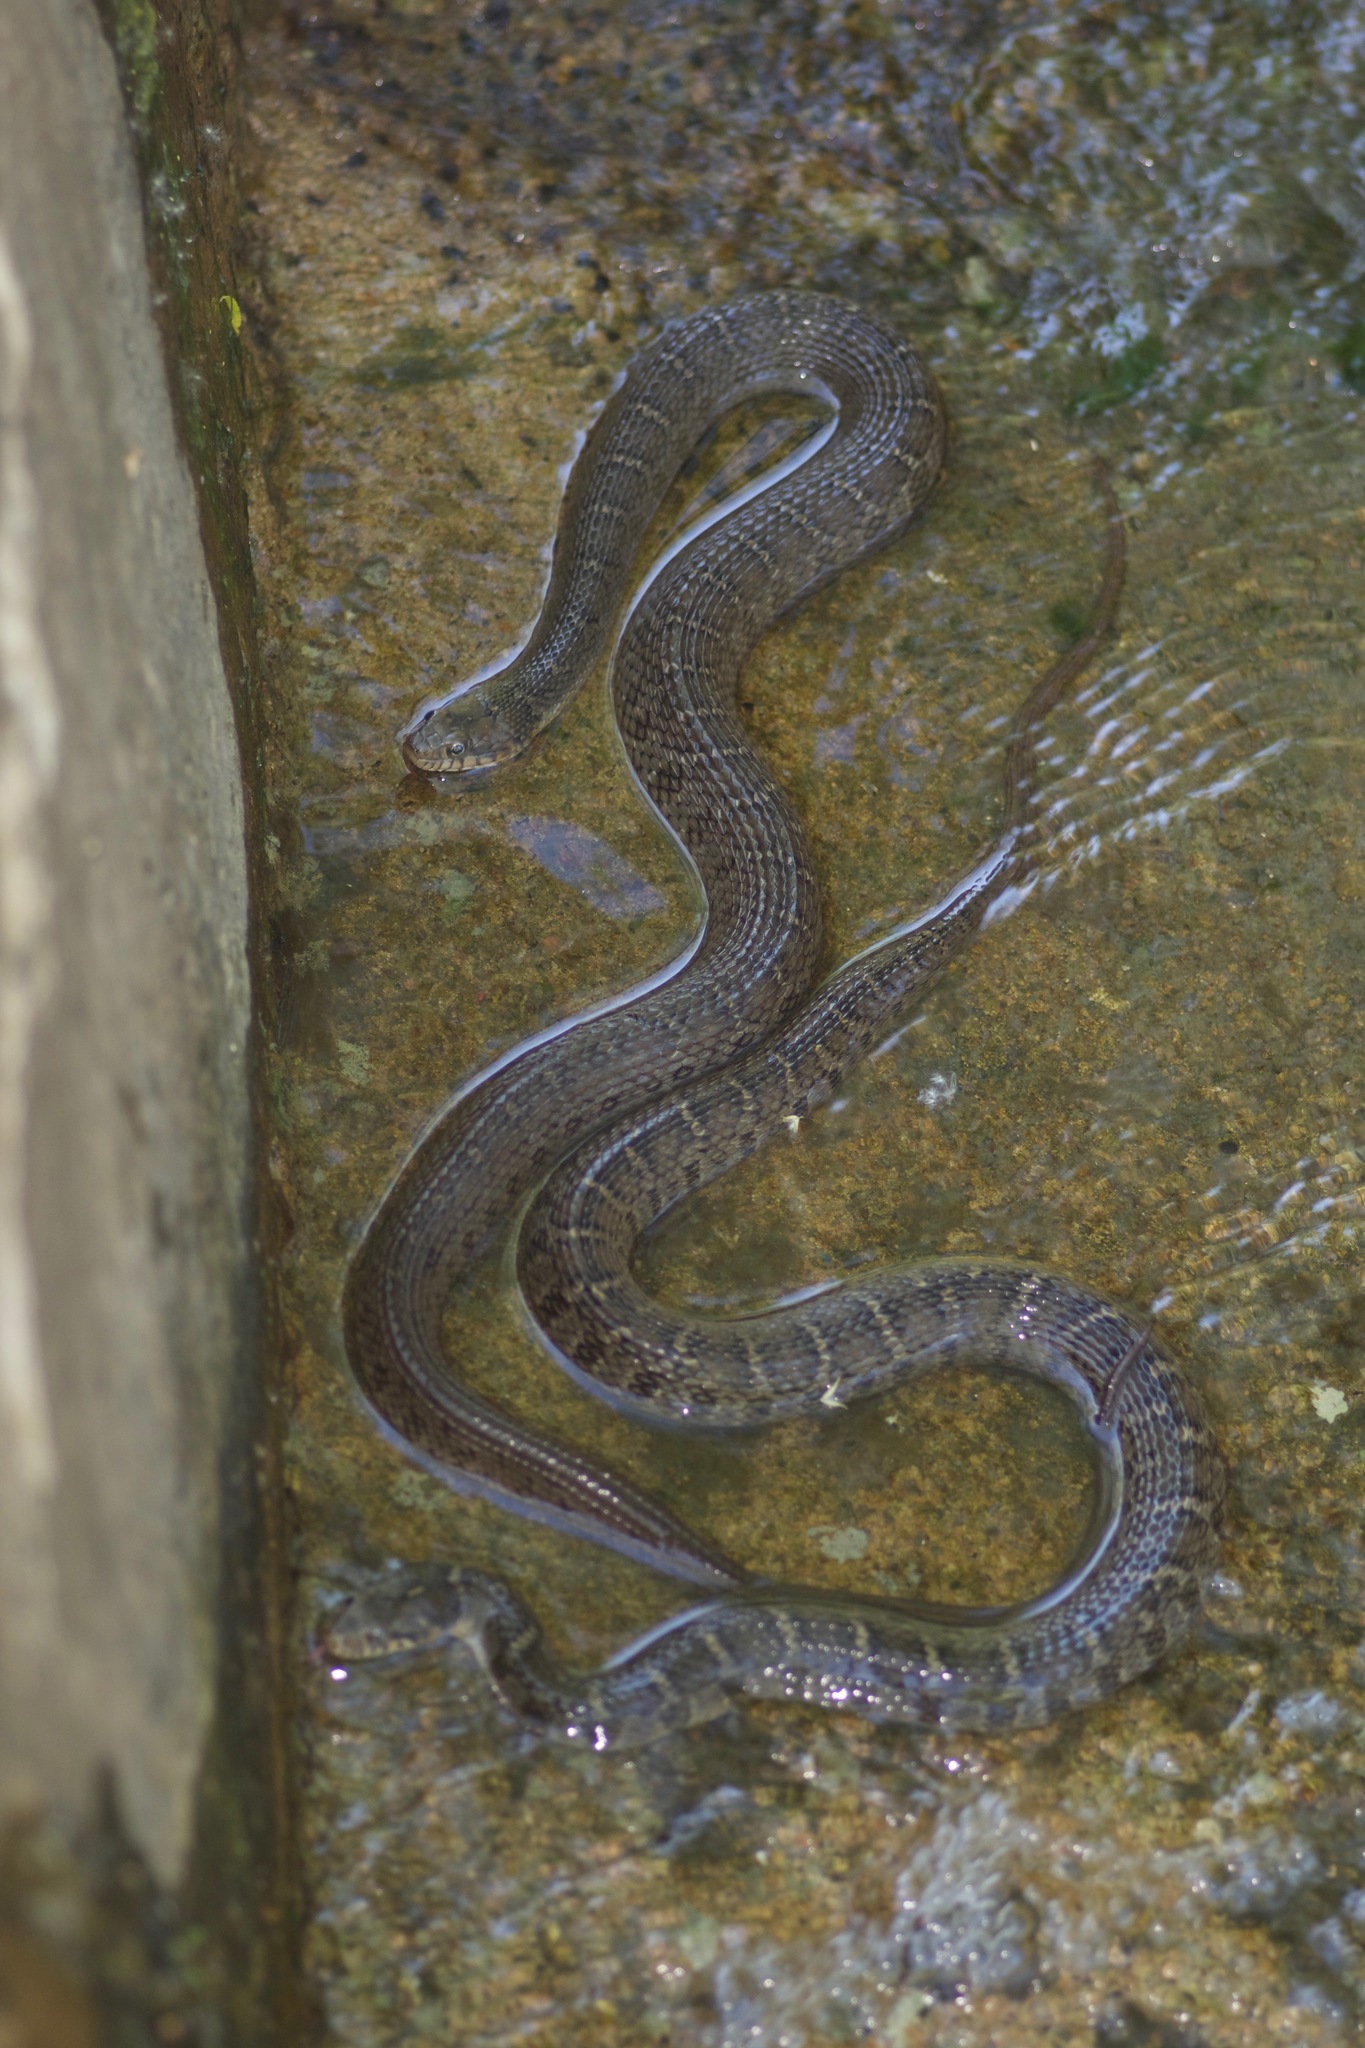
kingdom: Animalia
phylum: Chordata
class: Squamata
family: Colubridae
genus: Nerodia
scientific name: Nerodia erythrogaster
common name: Plainbelly water snake
